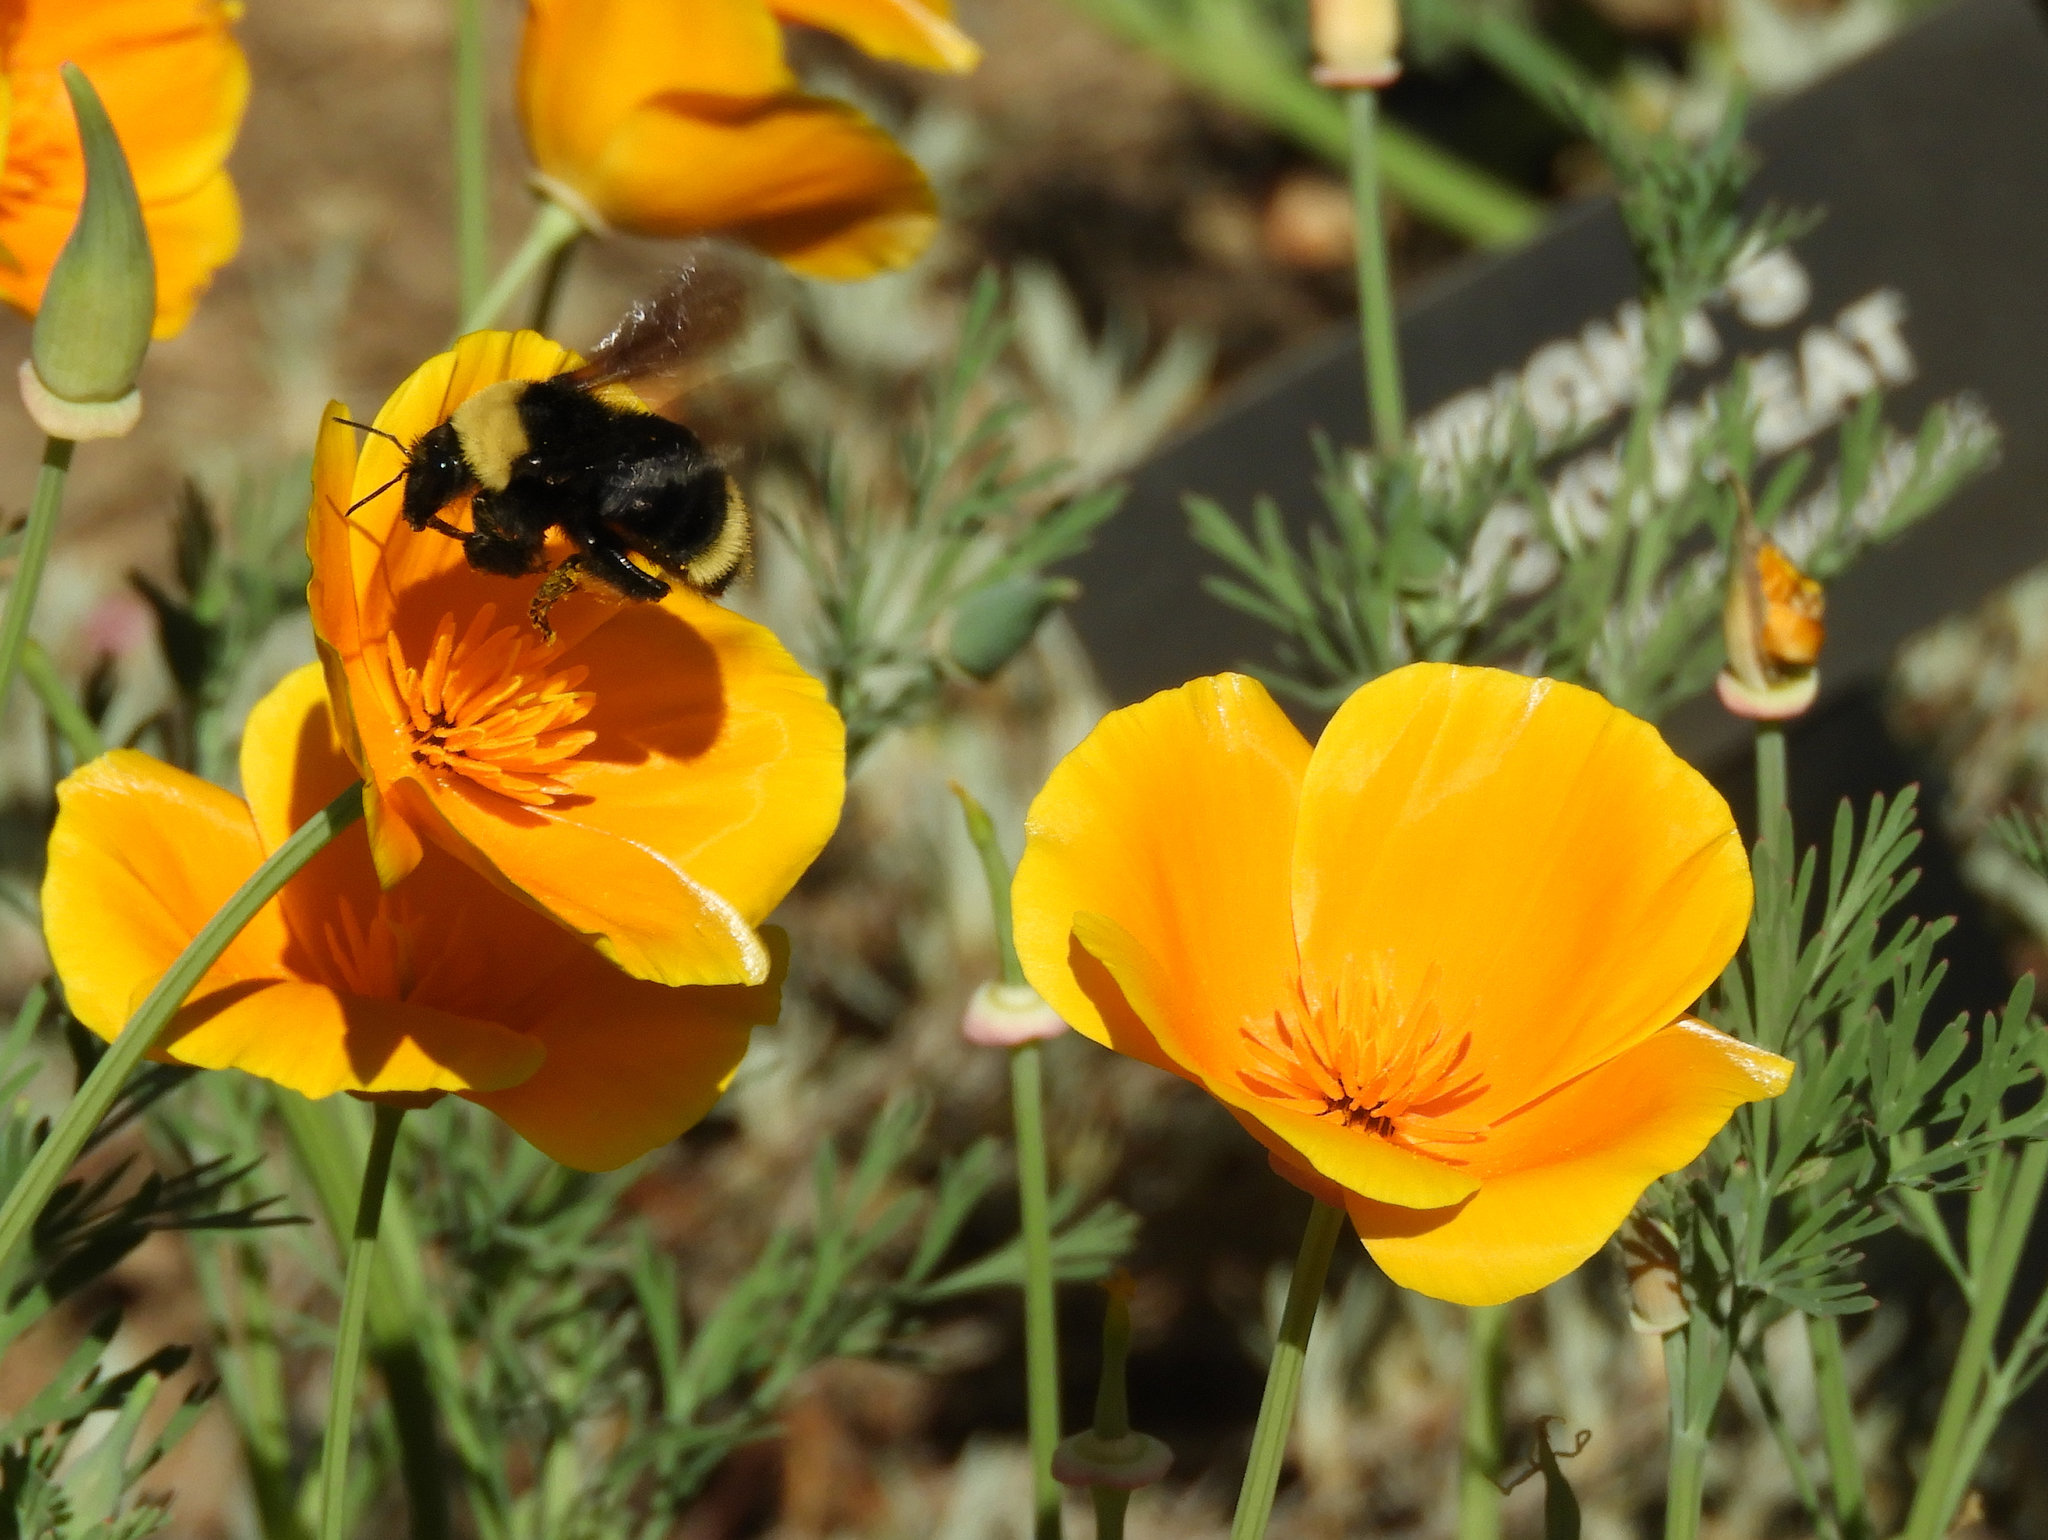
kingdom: Animalia
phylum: Arthropoda
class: Insecta
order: Hymenoptera
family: Apidae
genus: Bombus
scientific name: Bombus californicus
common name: California bumble bee
